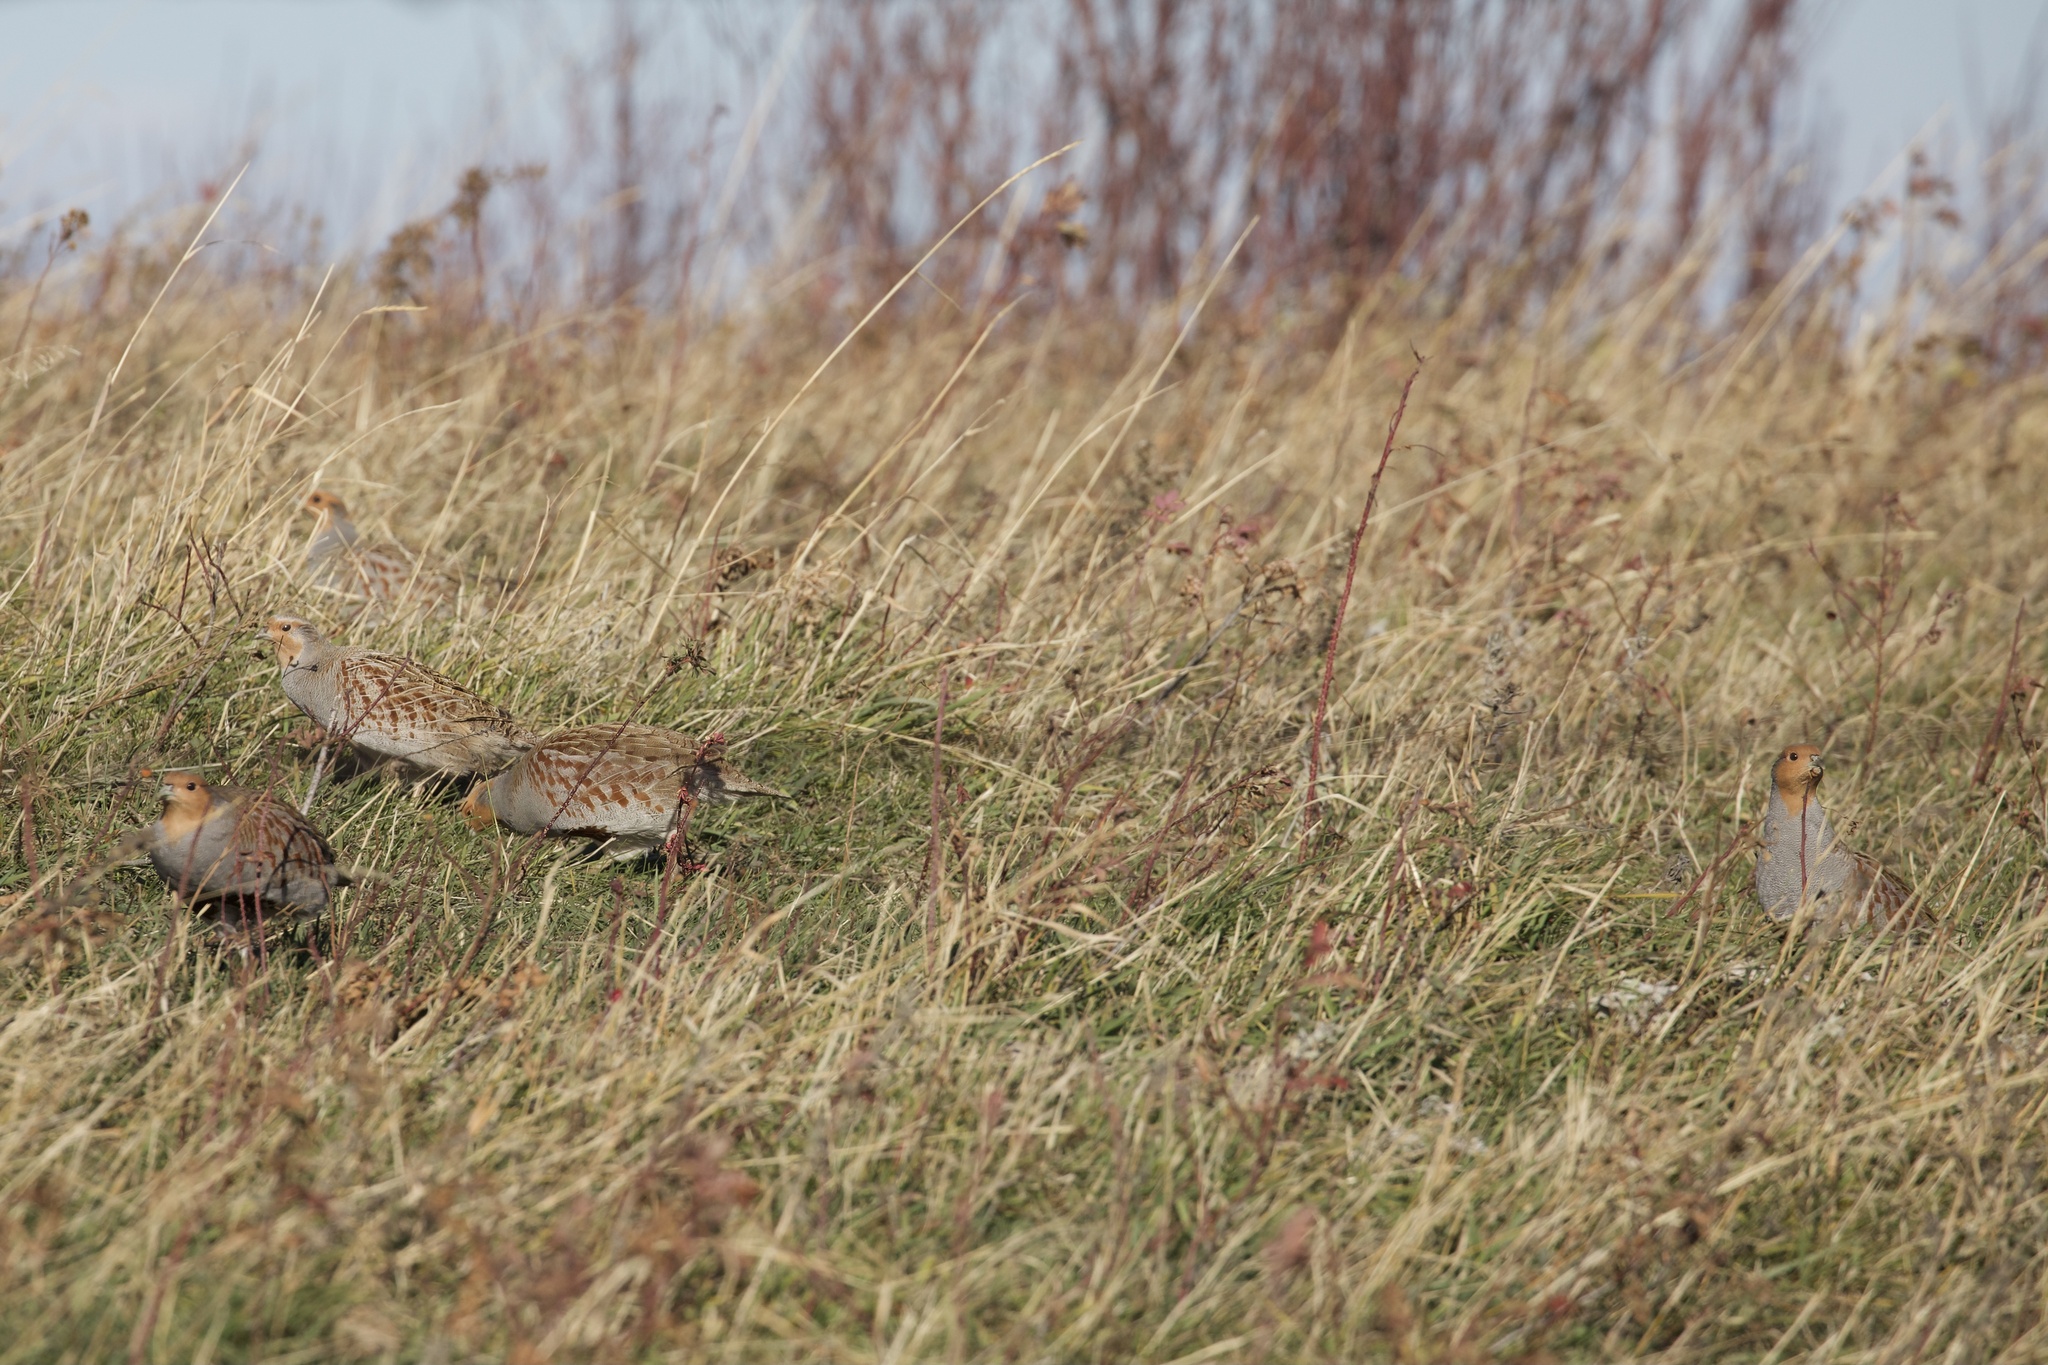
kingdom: Animalia
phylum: Chordata
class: Aves
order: Galliformes
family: Phasianidae
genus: Perdix
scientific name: Perdix perdix
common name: Grey partridge
